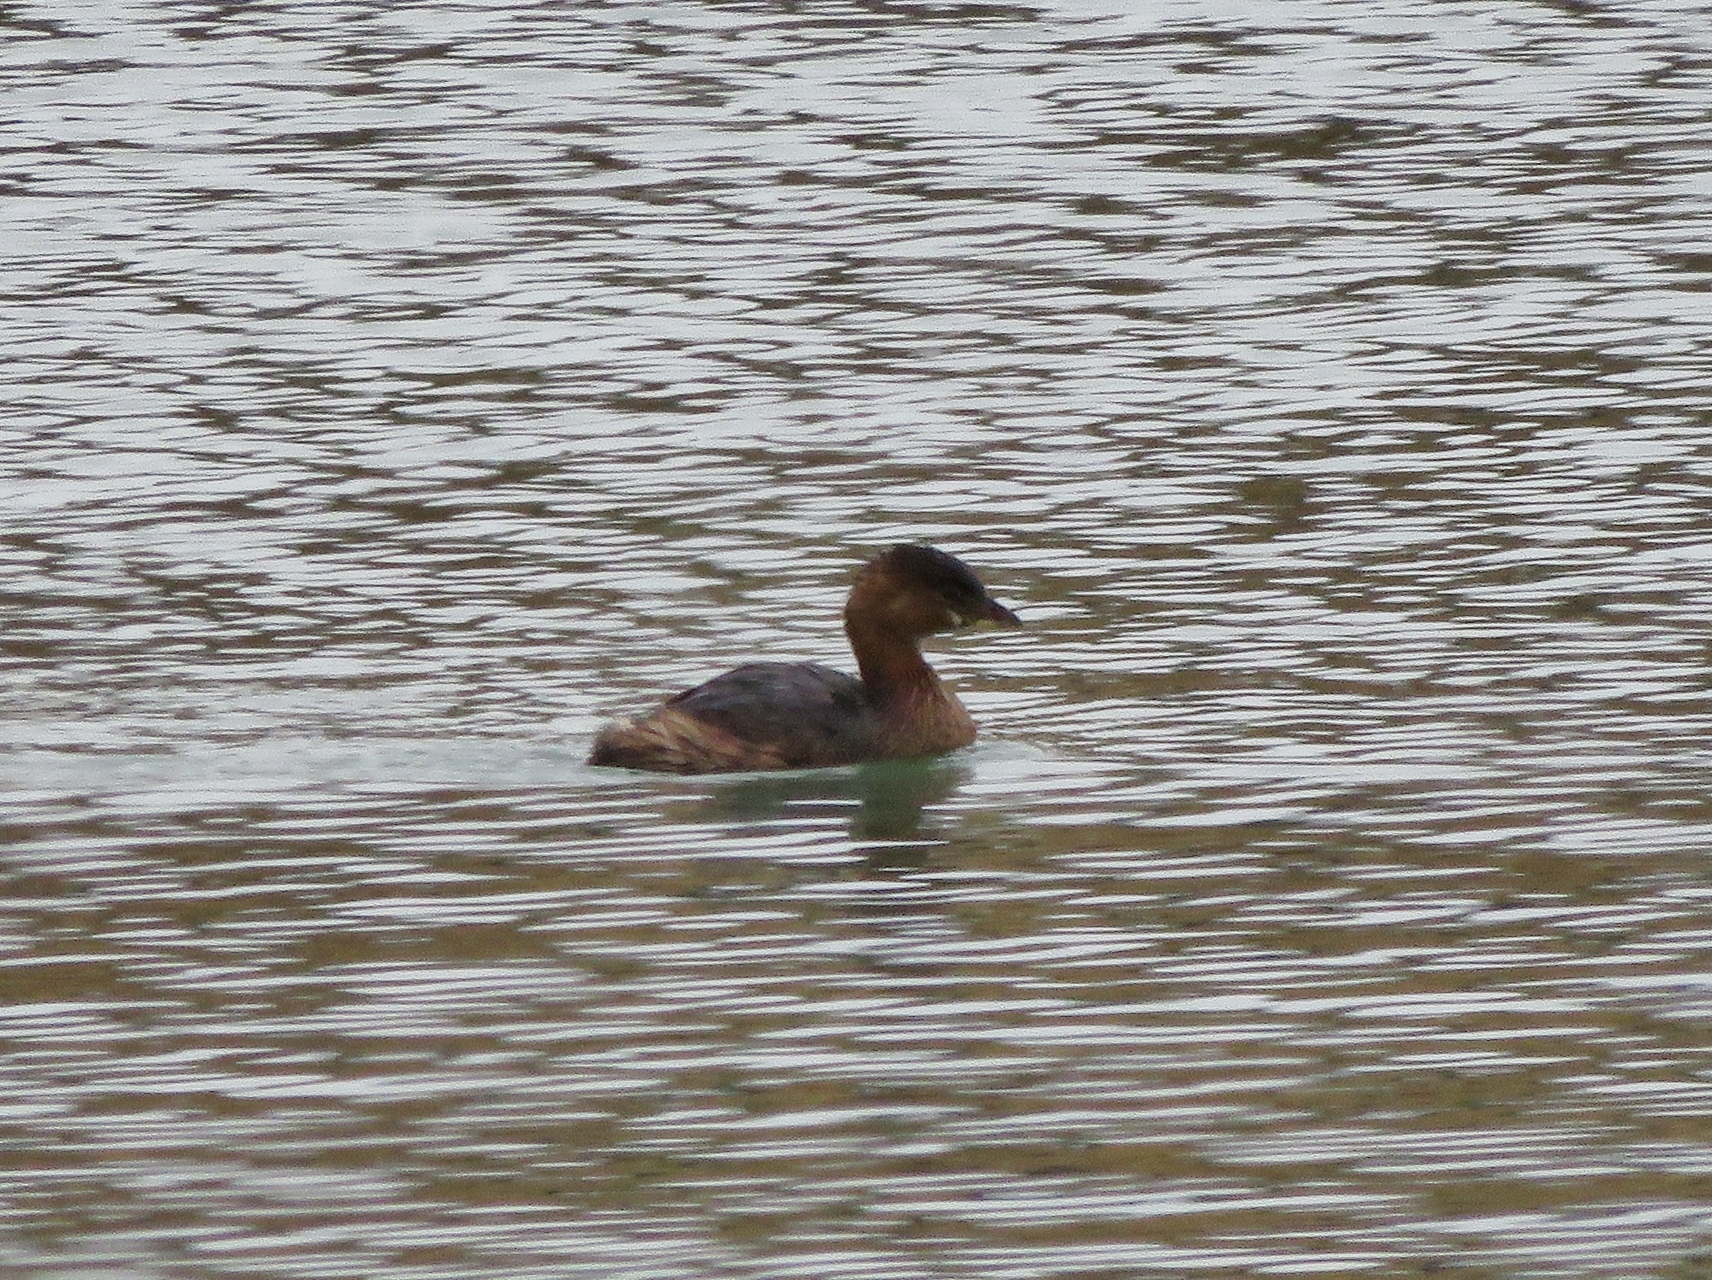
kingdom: Animalia
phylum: Chordata
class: Aves
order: Podicipediformes
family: Podicipedidae
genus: Podilymbus
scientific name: Podilymbus podiceps
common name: Pied-billed grebe
